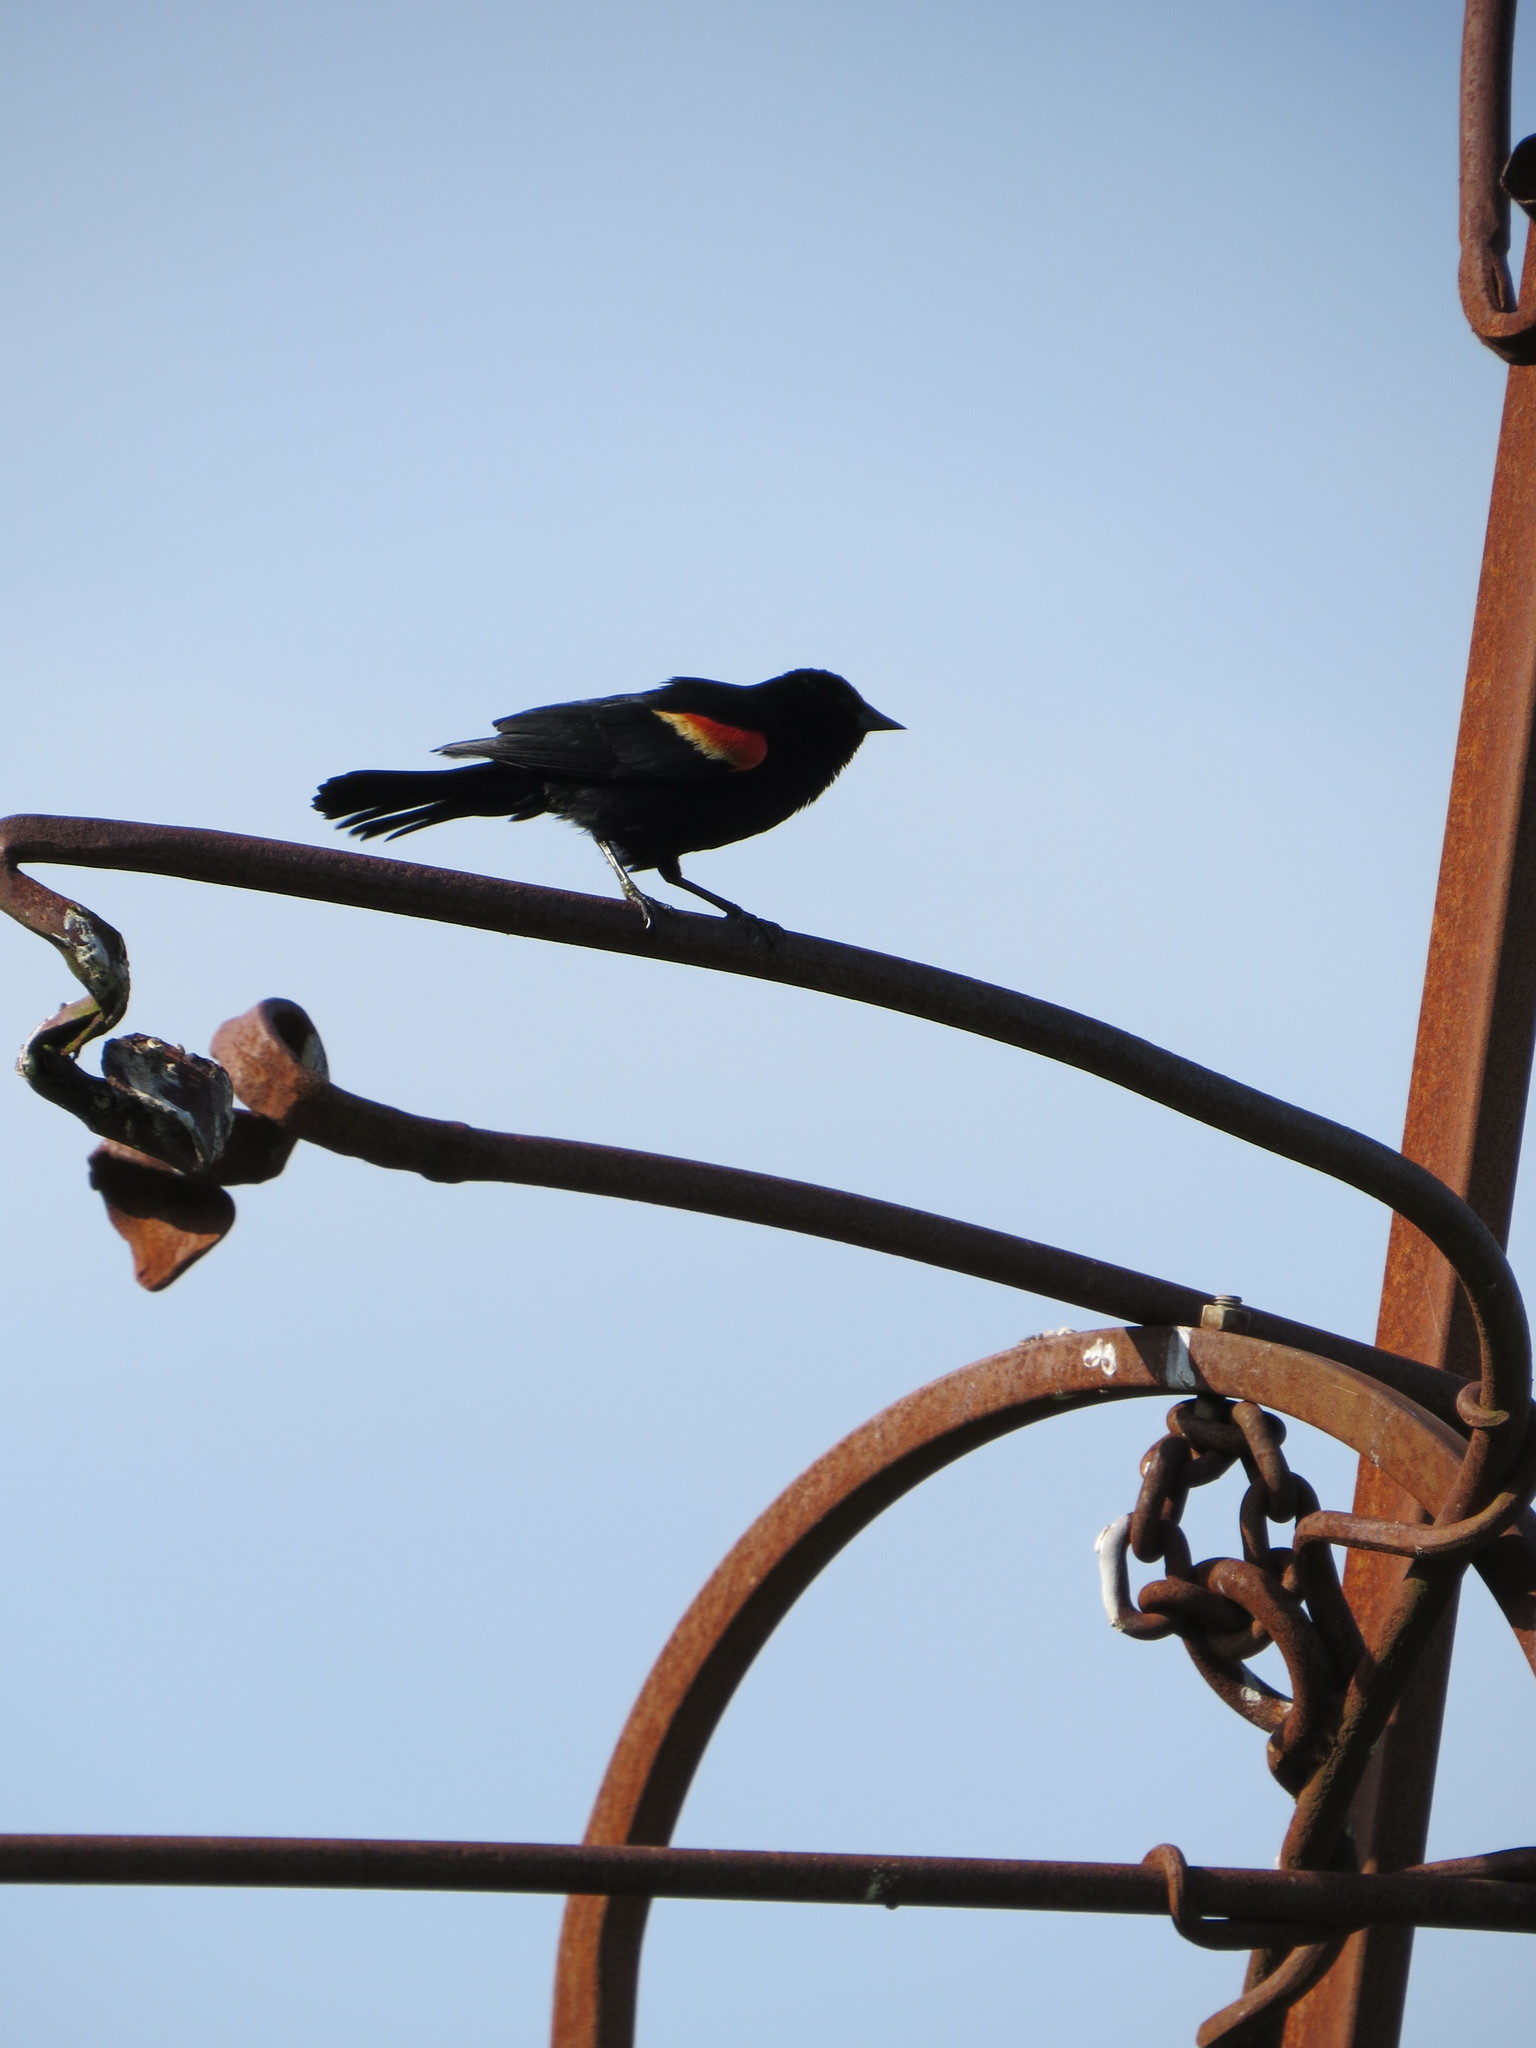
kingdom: Animalia
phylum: Chordata
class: Aves
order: Passeriformes
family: Icteridae
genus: Agelaius
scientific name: Agelaius phoeniceus
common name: Red-winged blackbird
